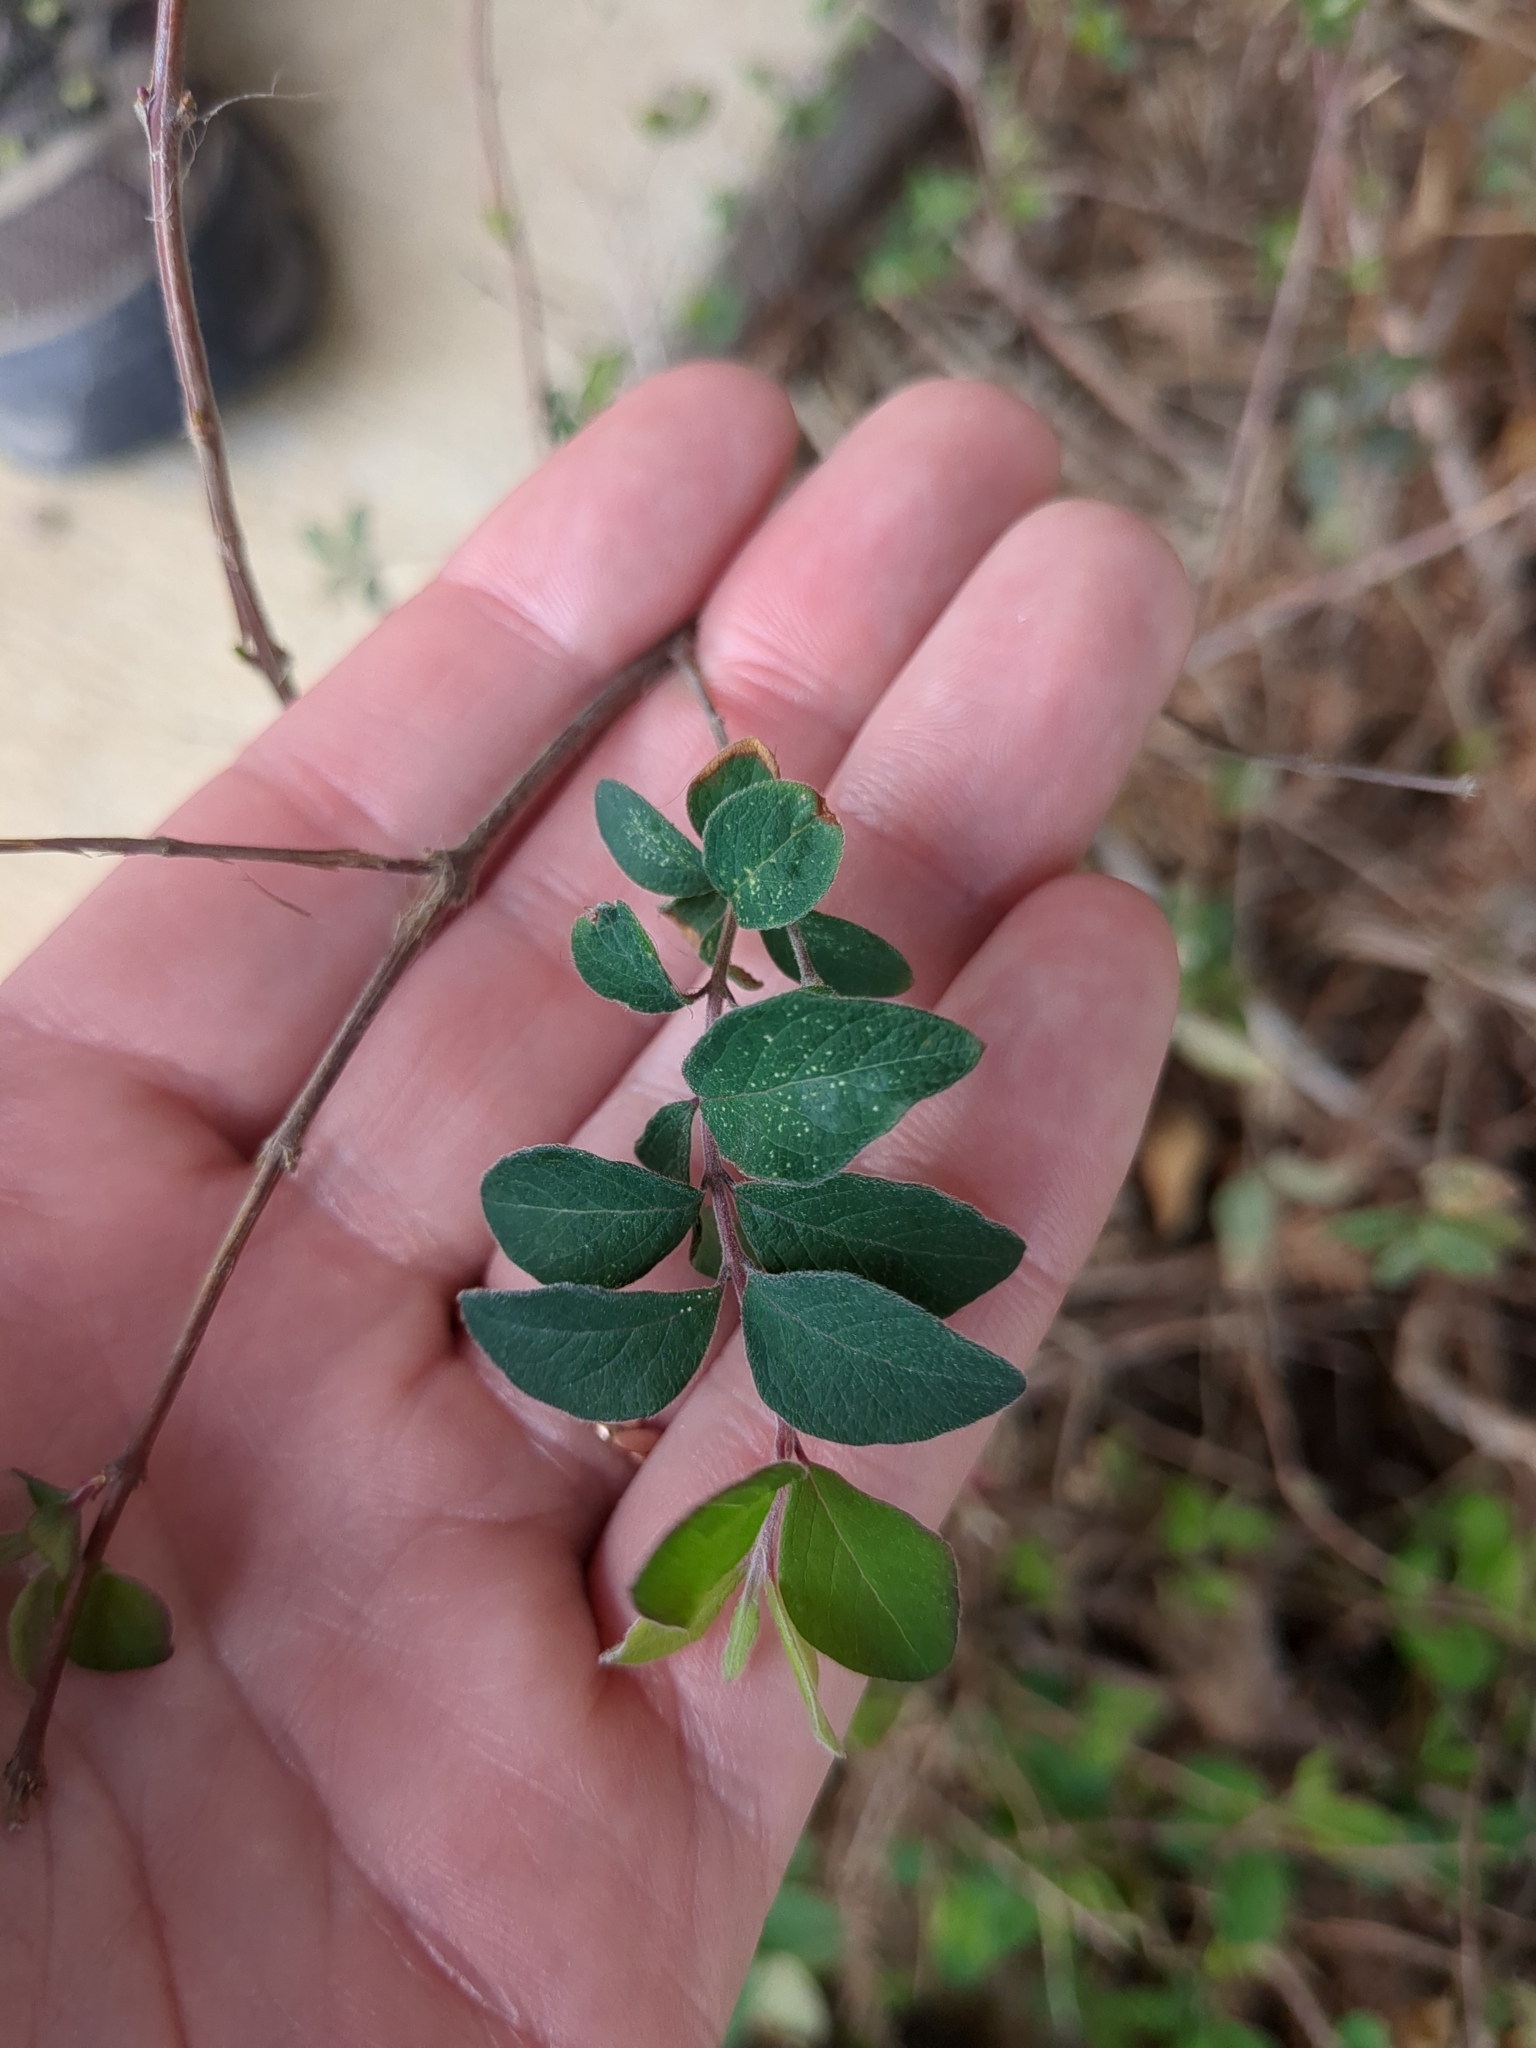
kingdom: Plantae
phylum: Tracheophyta
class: Magnoliopsida
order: Dipsacales
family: Caprifoliaceae
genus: Symphoricarpos
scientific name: Symphoricarpos orbiculatus
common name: Coralberry
